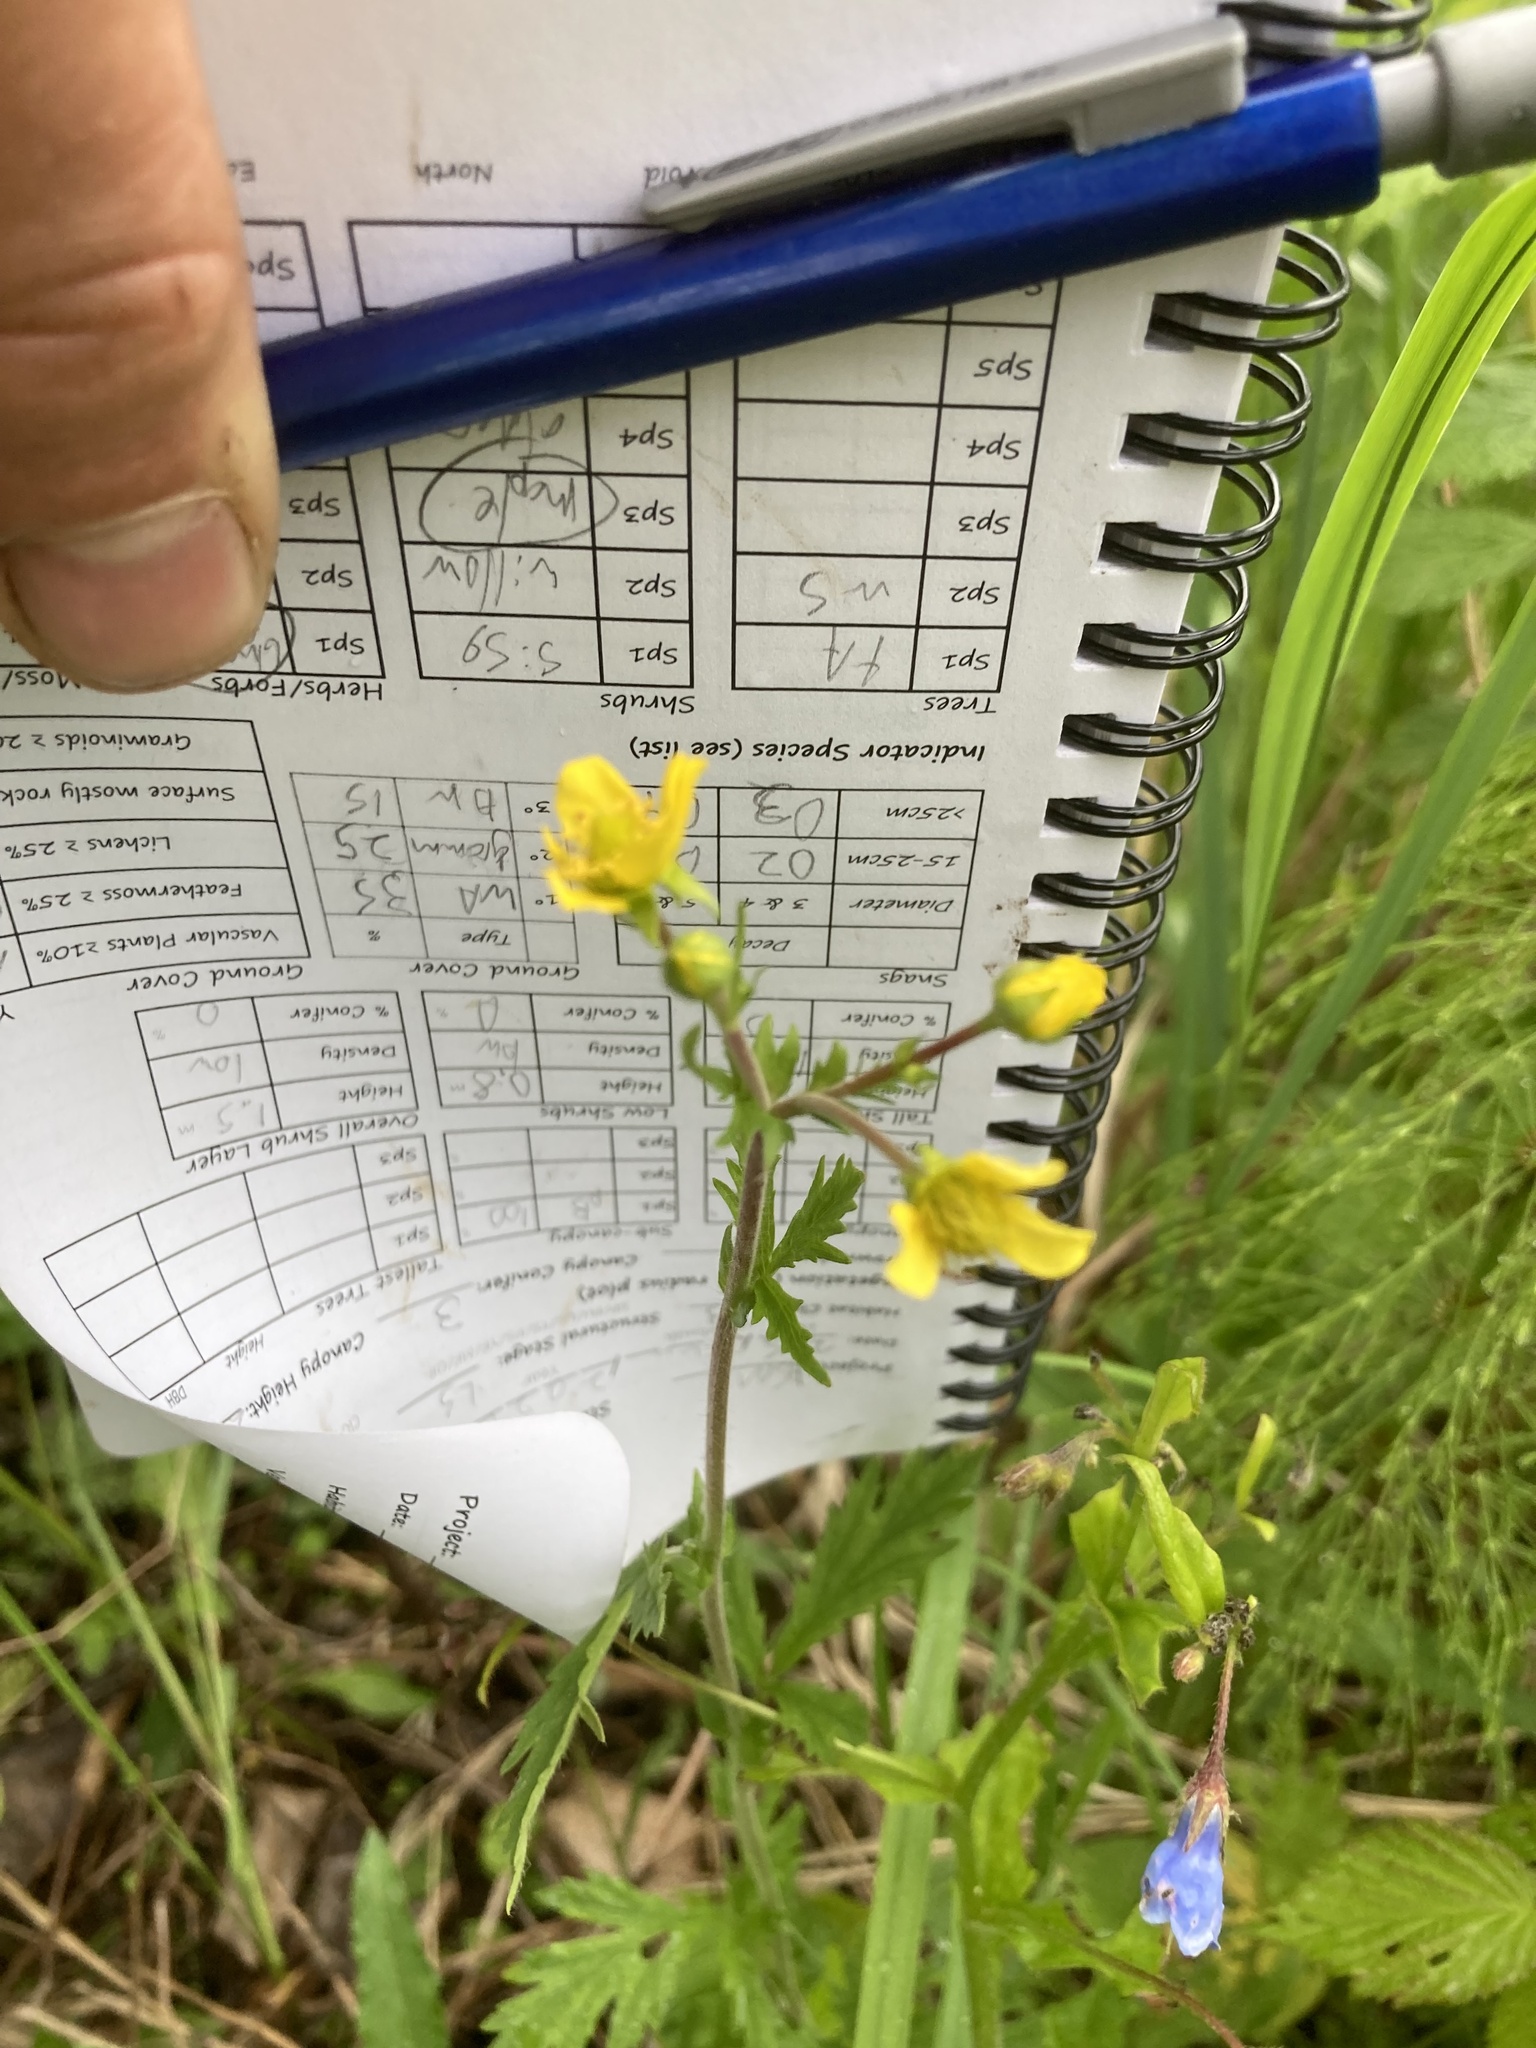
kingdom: Plantae
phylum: Tracheophyta
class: Magnoliopsida
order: Rosales
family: Rosaceae
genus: Geum
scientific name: Geum aleppicum
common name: Yellow avens
